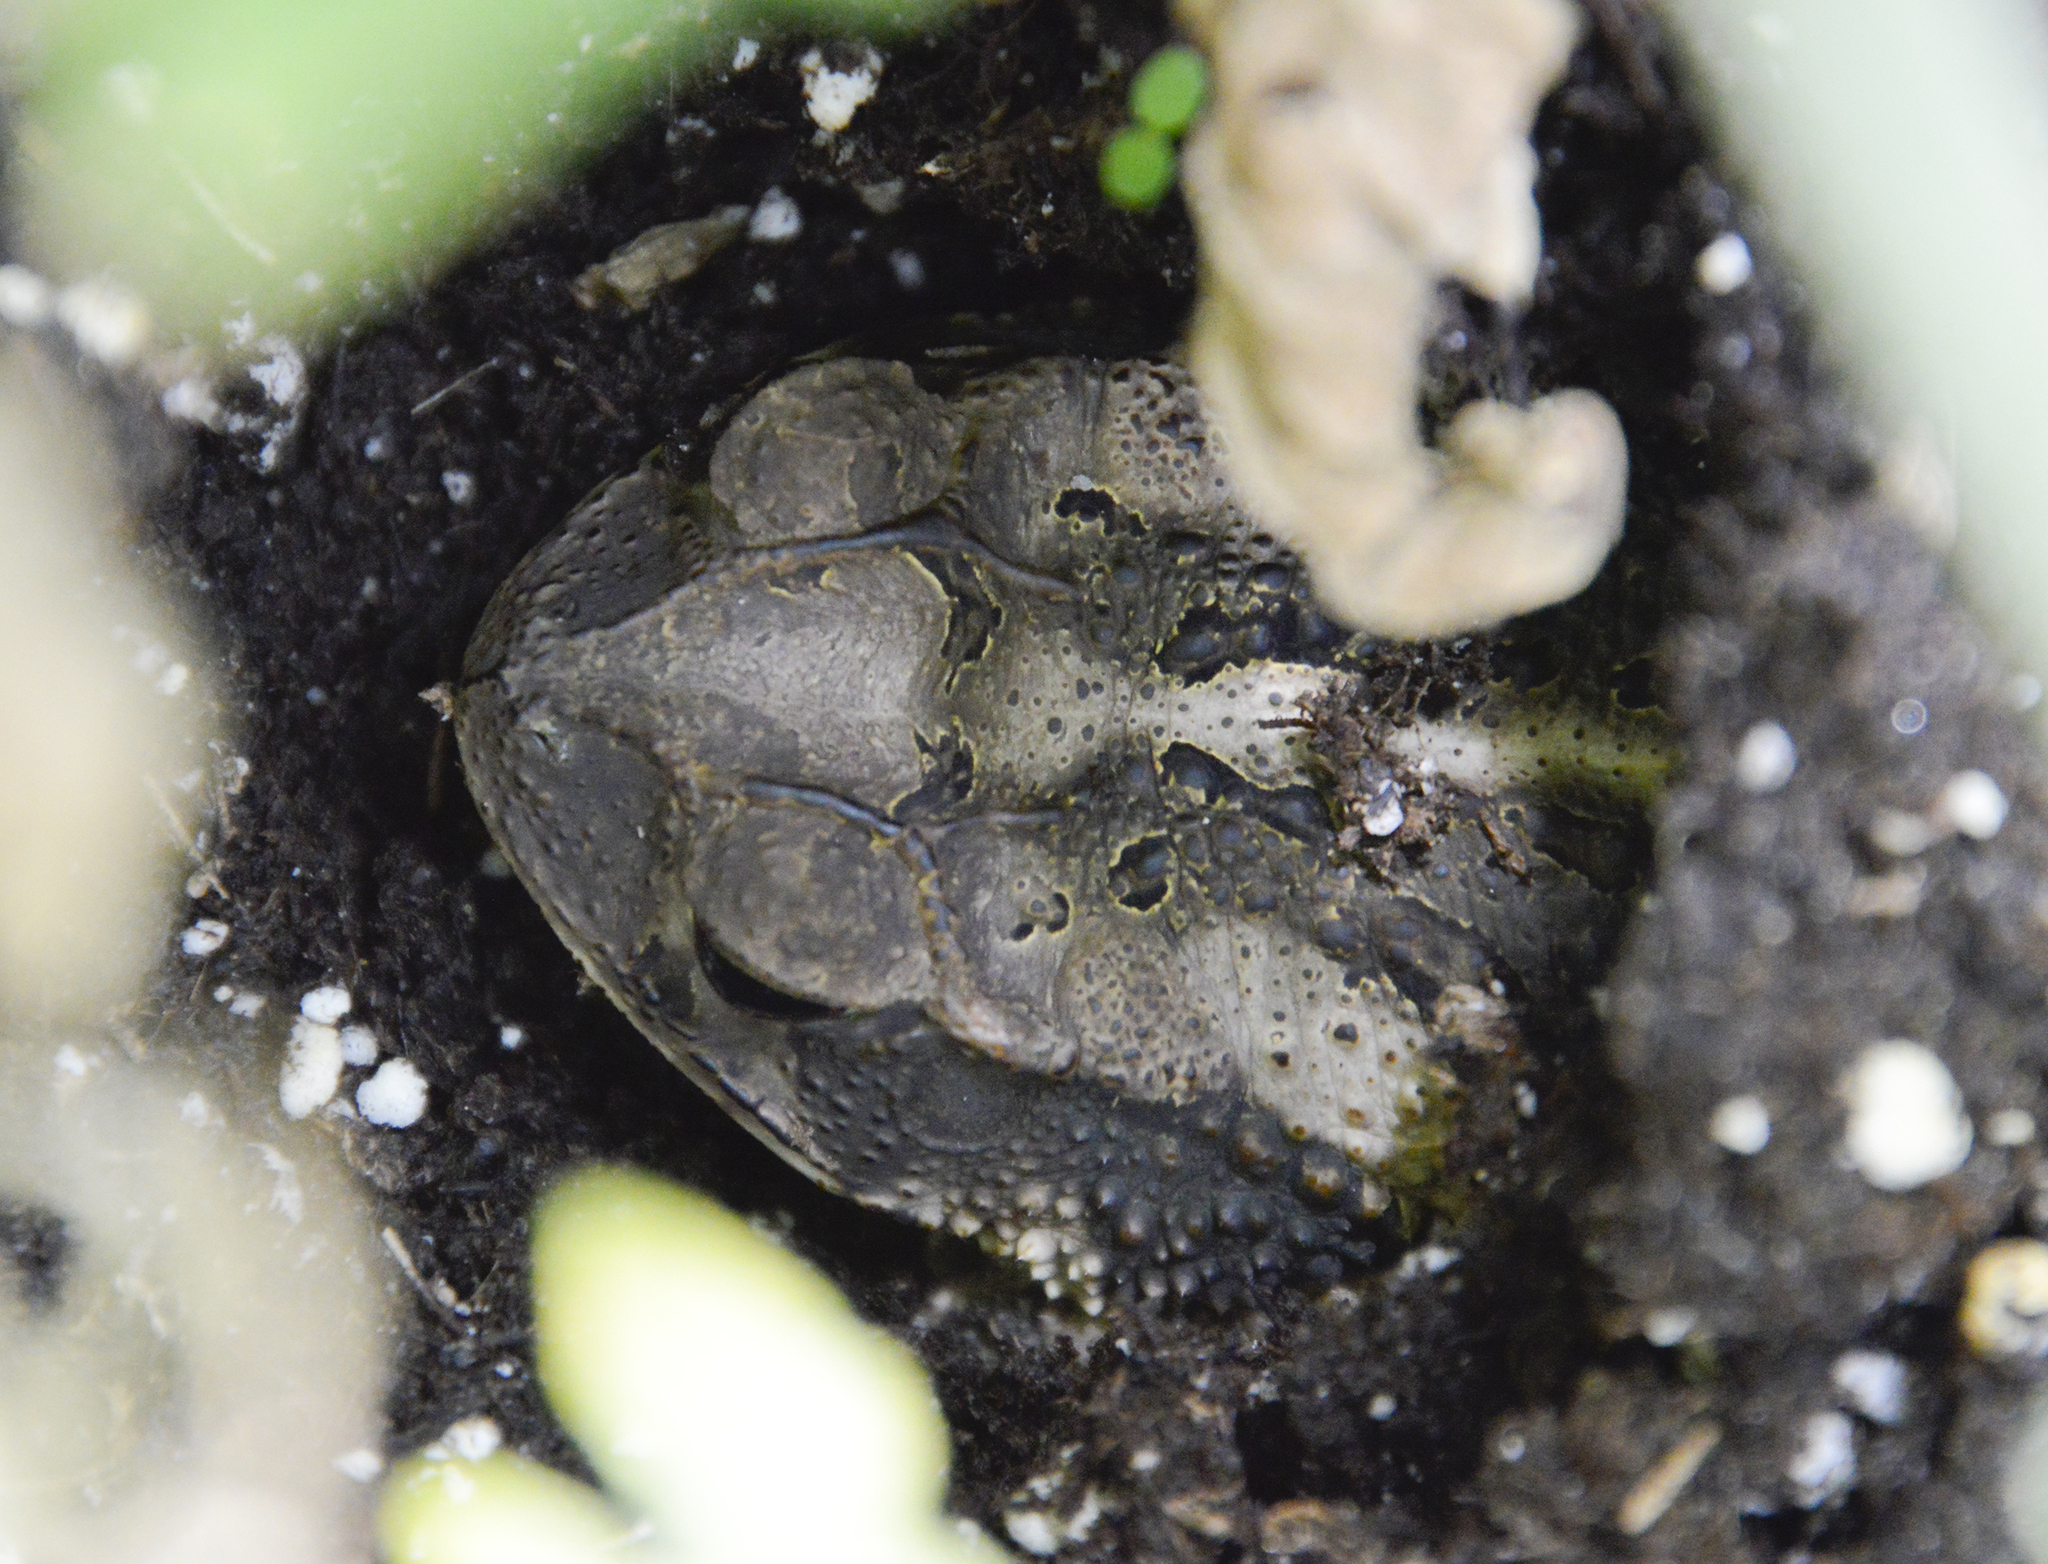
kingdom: Animalia
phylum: Chordata
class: Amphibia
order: Anura
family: Bufonidae
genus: Incilius
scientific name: Incilius nebulifer
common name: Gulf coast toad
